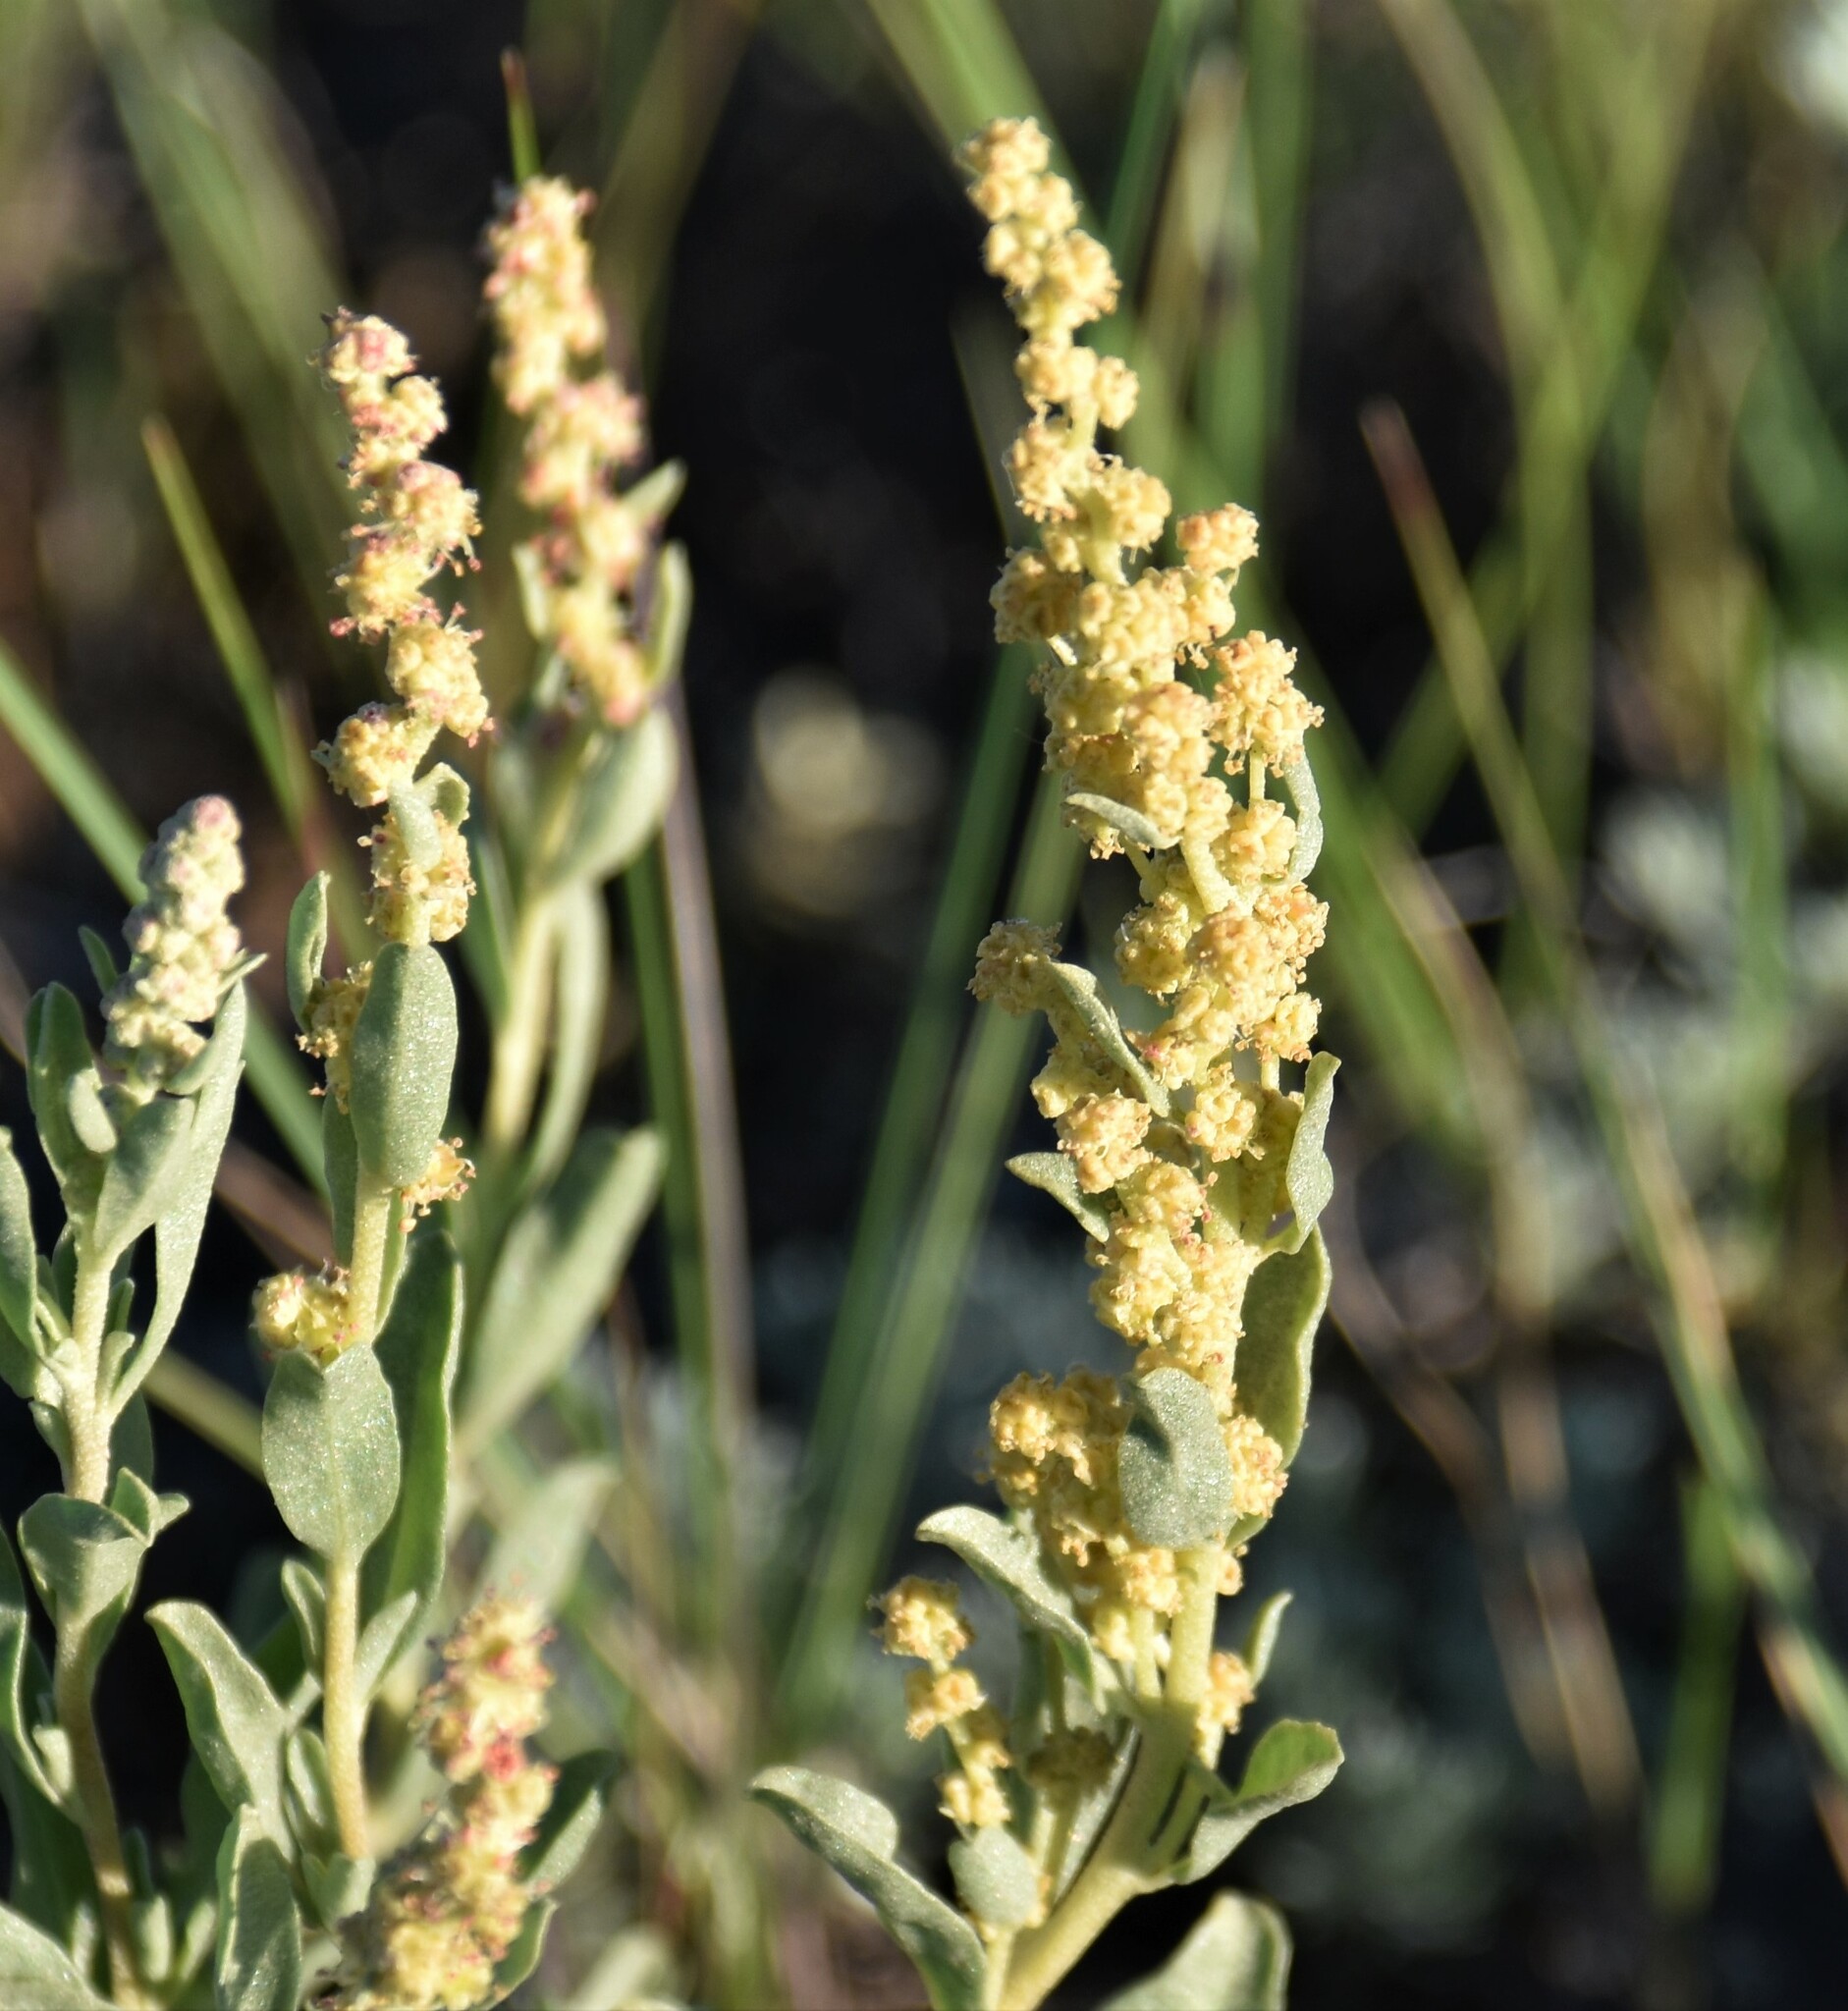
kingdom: Plantae
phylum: Tracheophyta
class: Magnoliopsida
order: Caryophyllales
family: Amaranthaceae
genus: Atriplex
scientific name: Atriplex gardneri
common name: Gardner's orache
